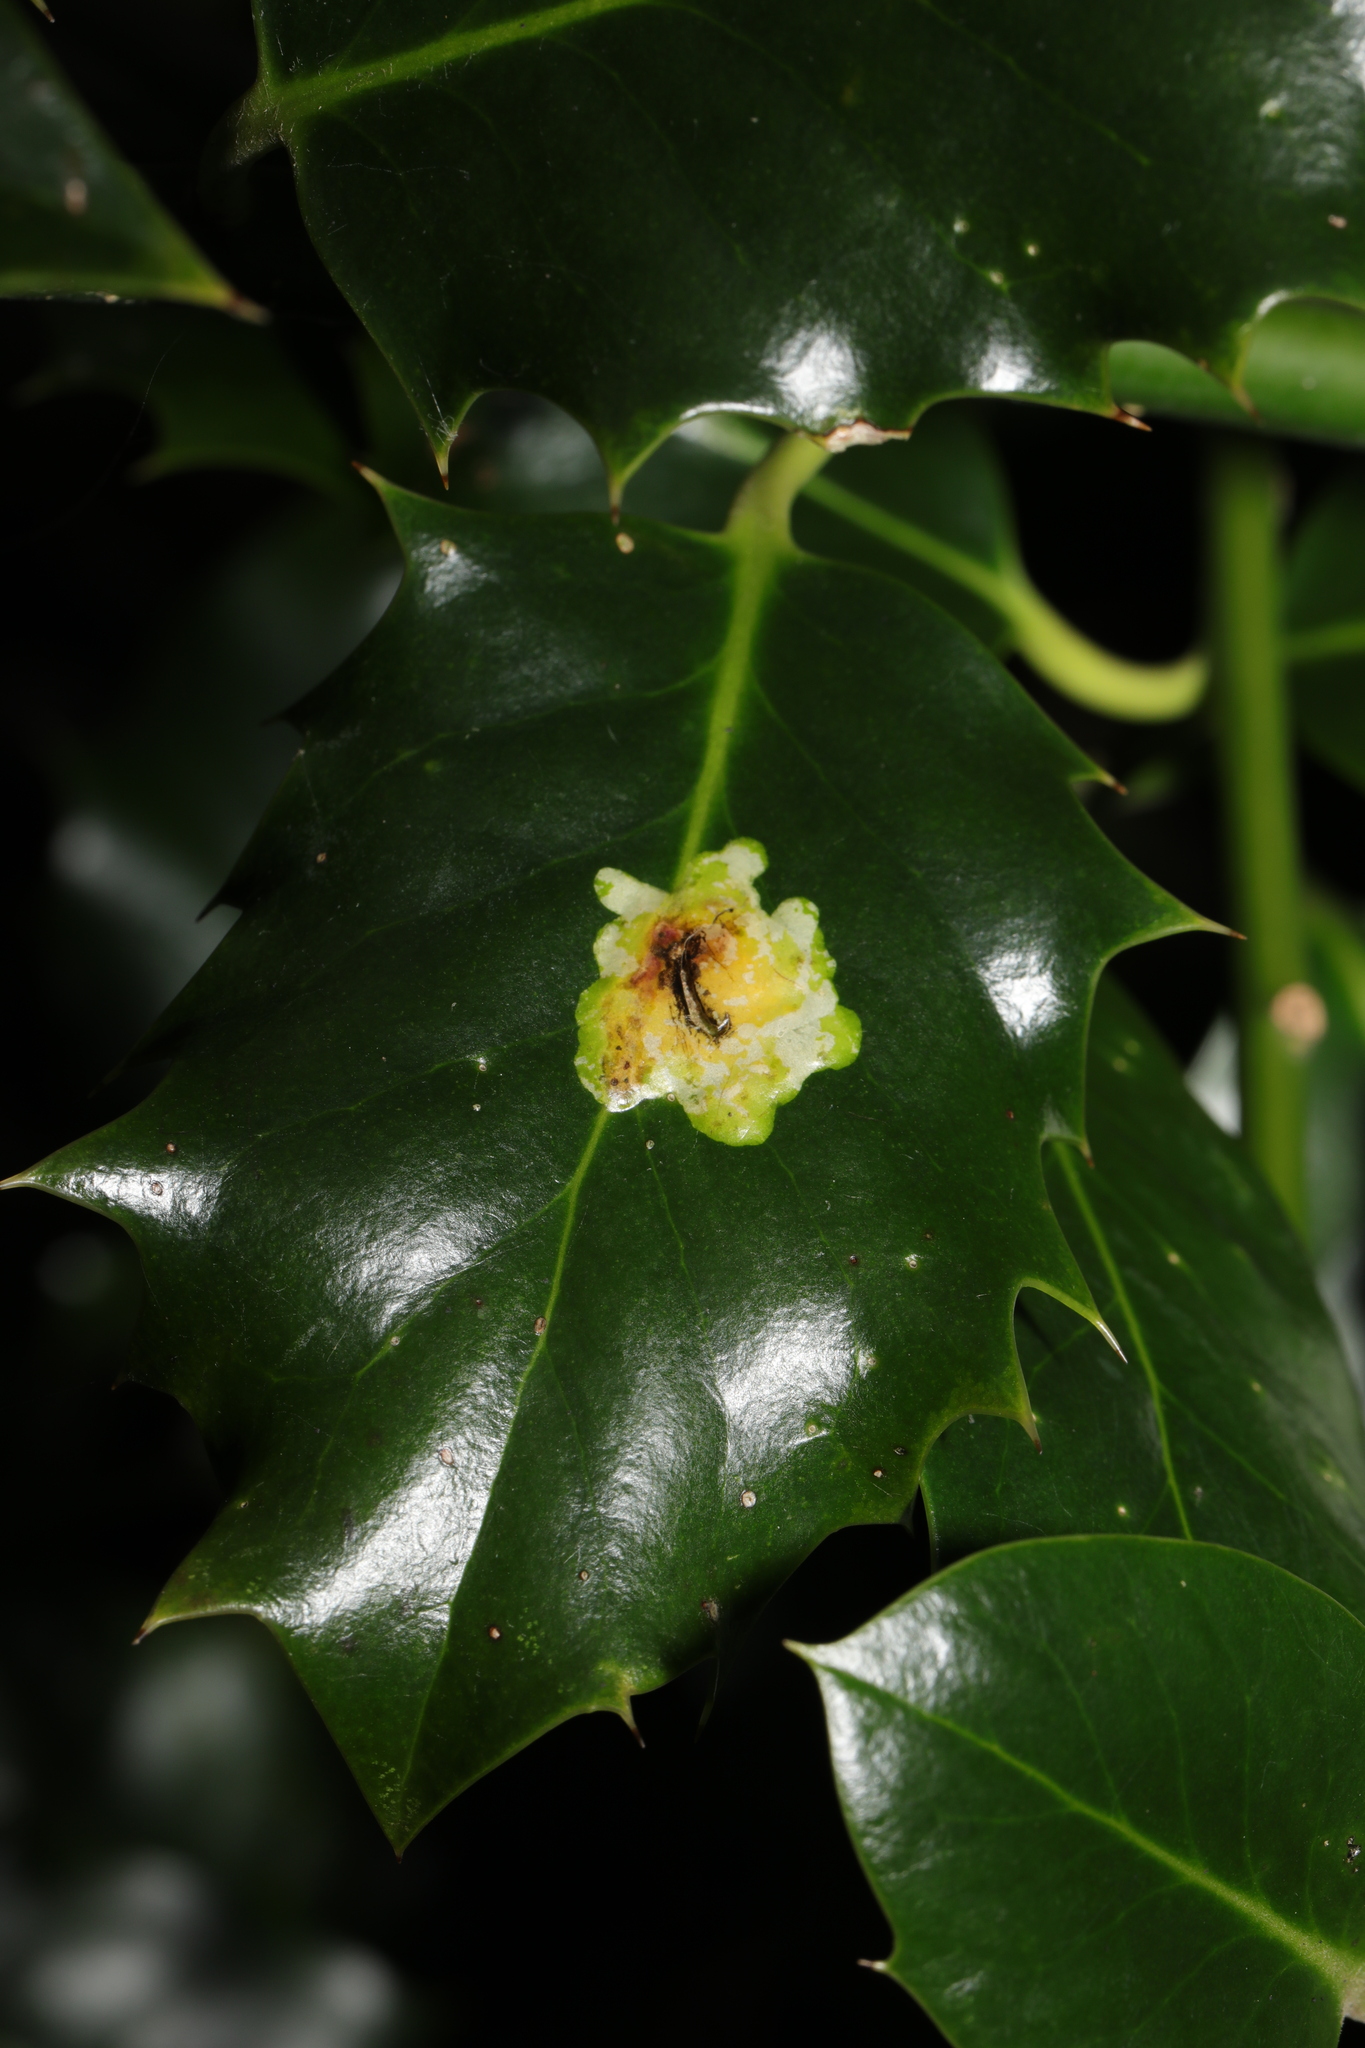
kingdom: Animalia
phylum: Arthropoda
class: Insecta
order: Diptera
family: Agromyzidae
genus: Phytomyza
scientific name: Phytomyza ilicis
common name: Holly leafminer
